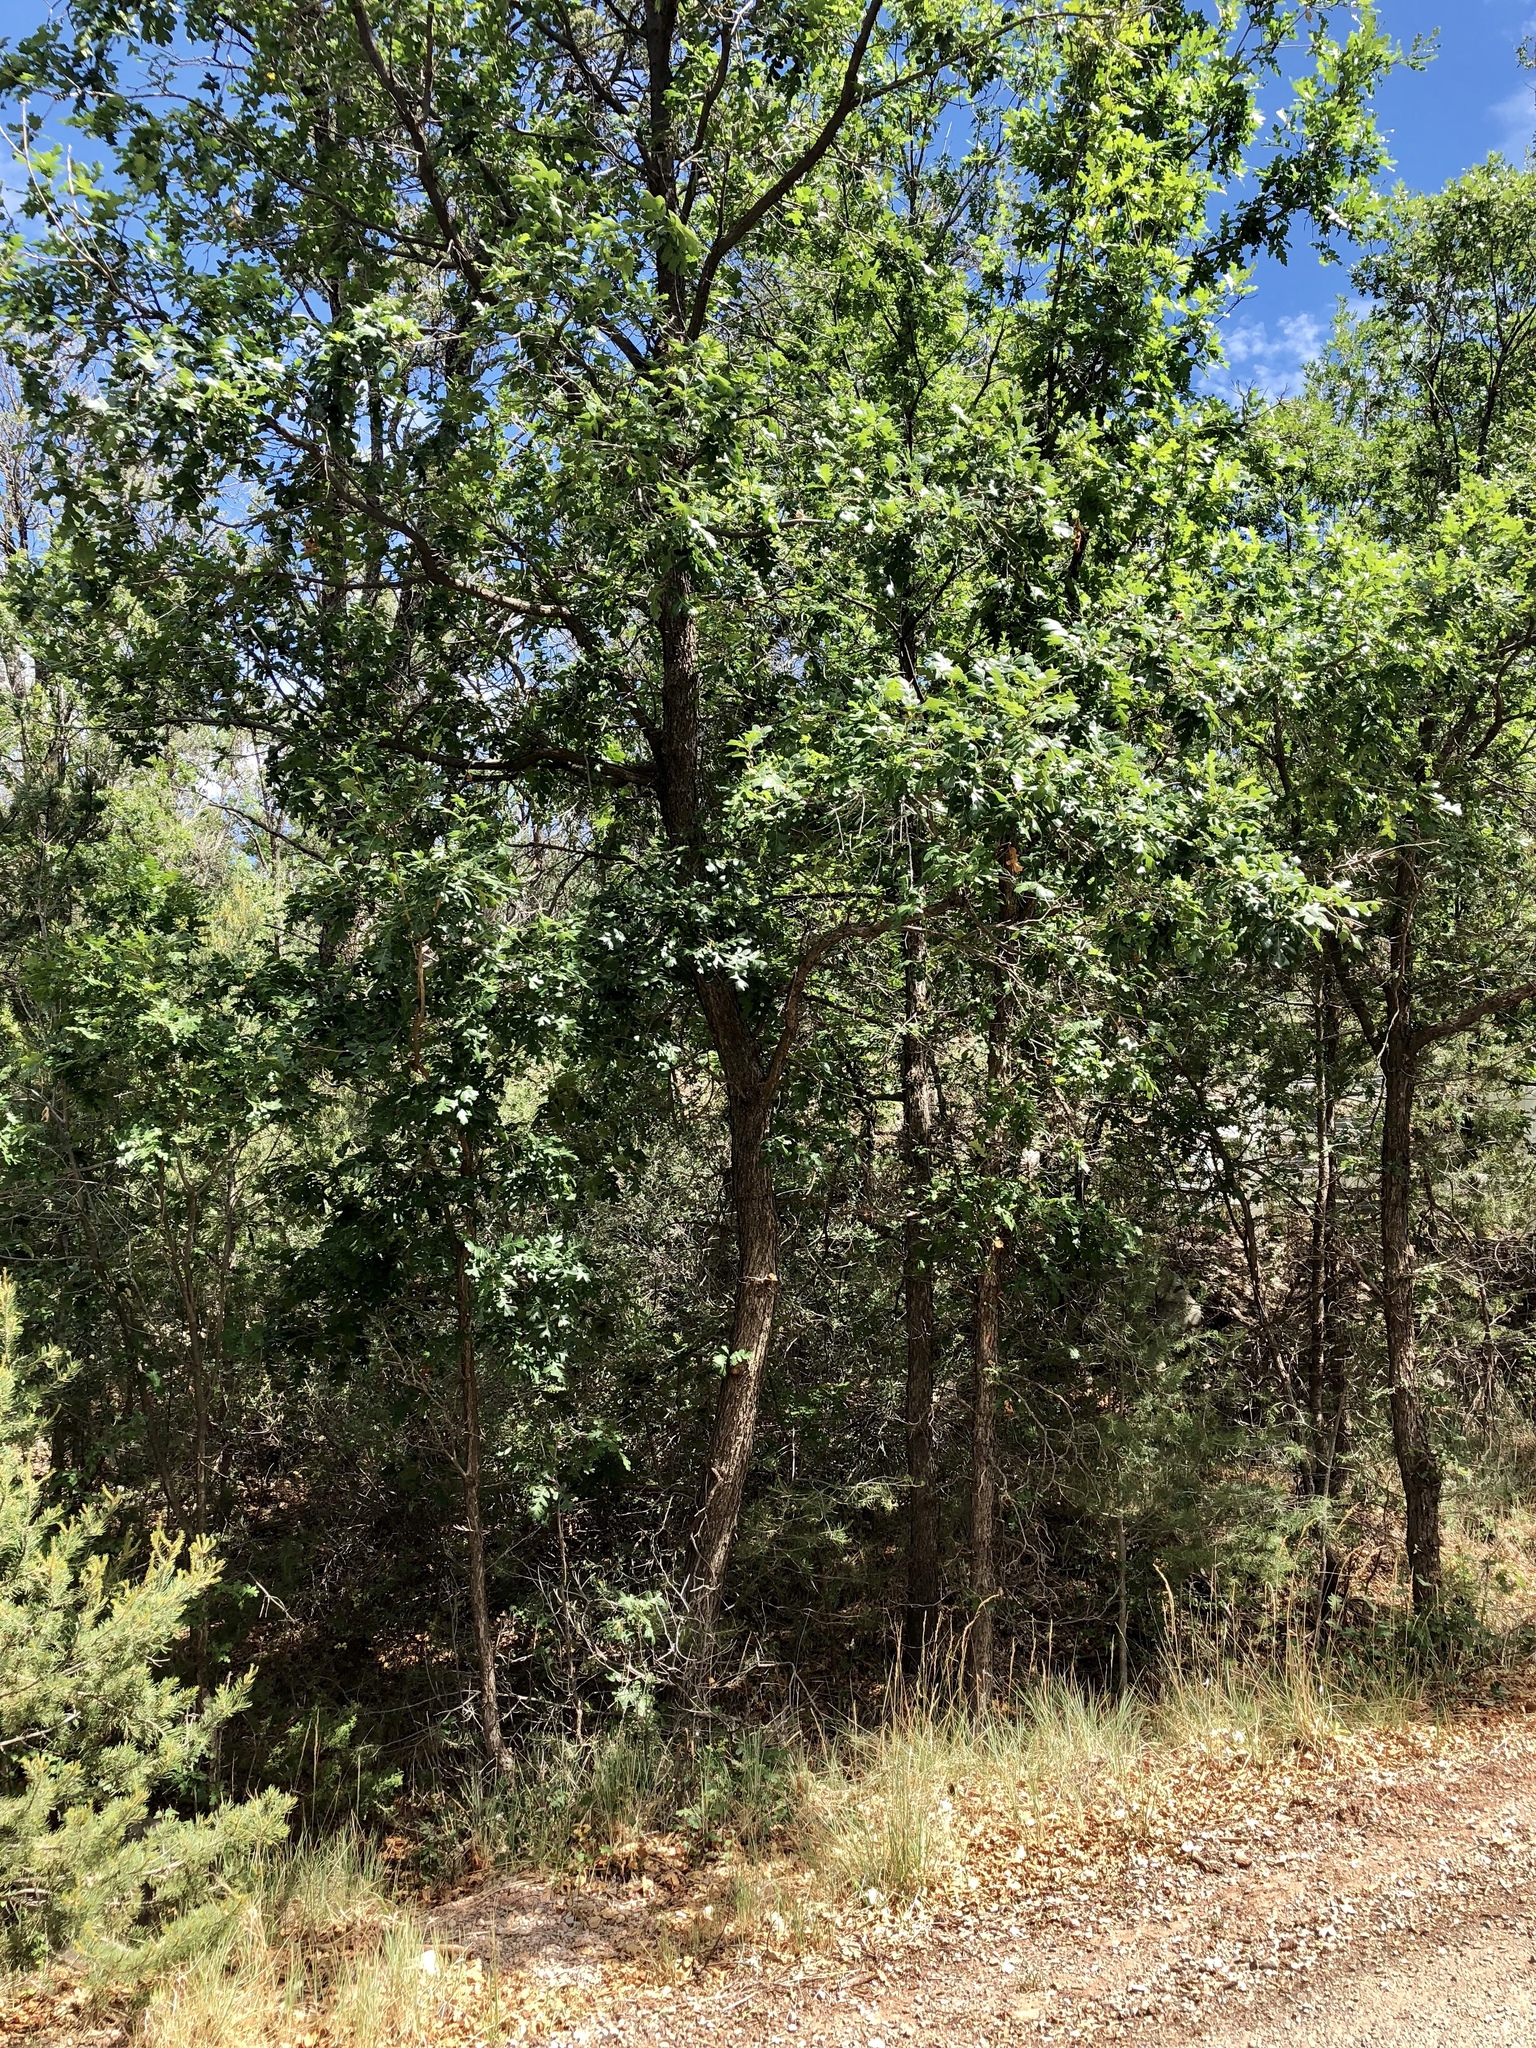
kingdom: Plantae
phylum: Tracheophyta
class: Magnoliopsida
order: Fagales
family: Fagaceae
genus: Quercus
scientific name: Quercus gambelii
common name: Gambel oak
